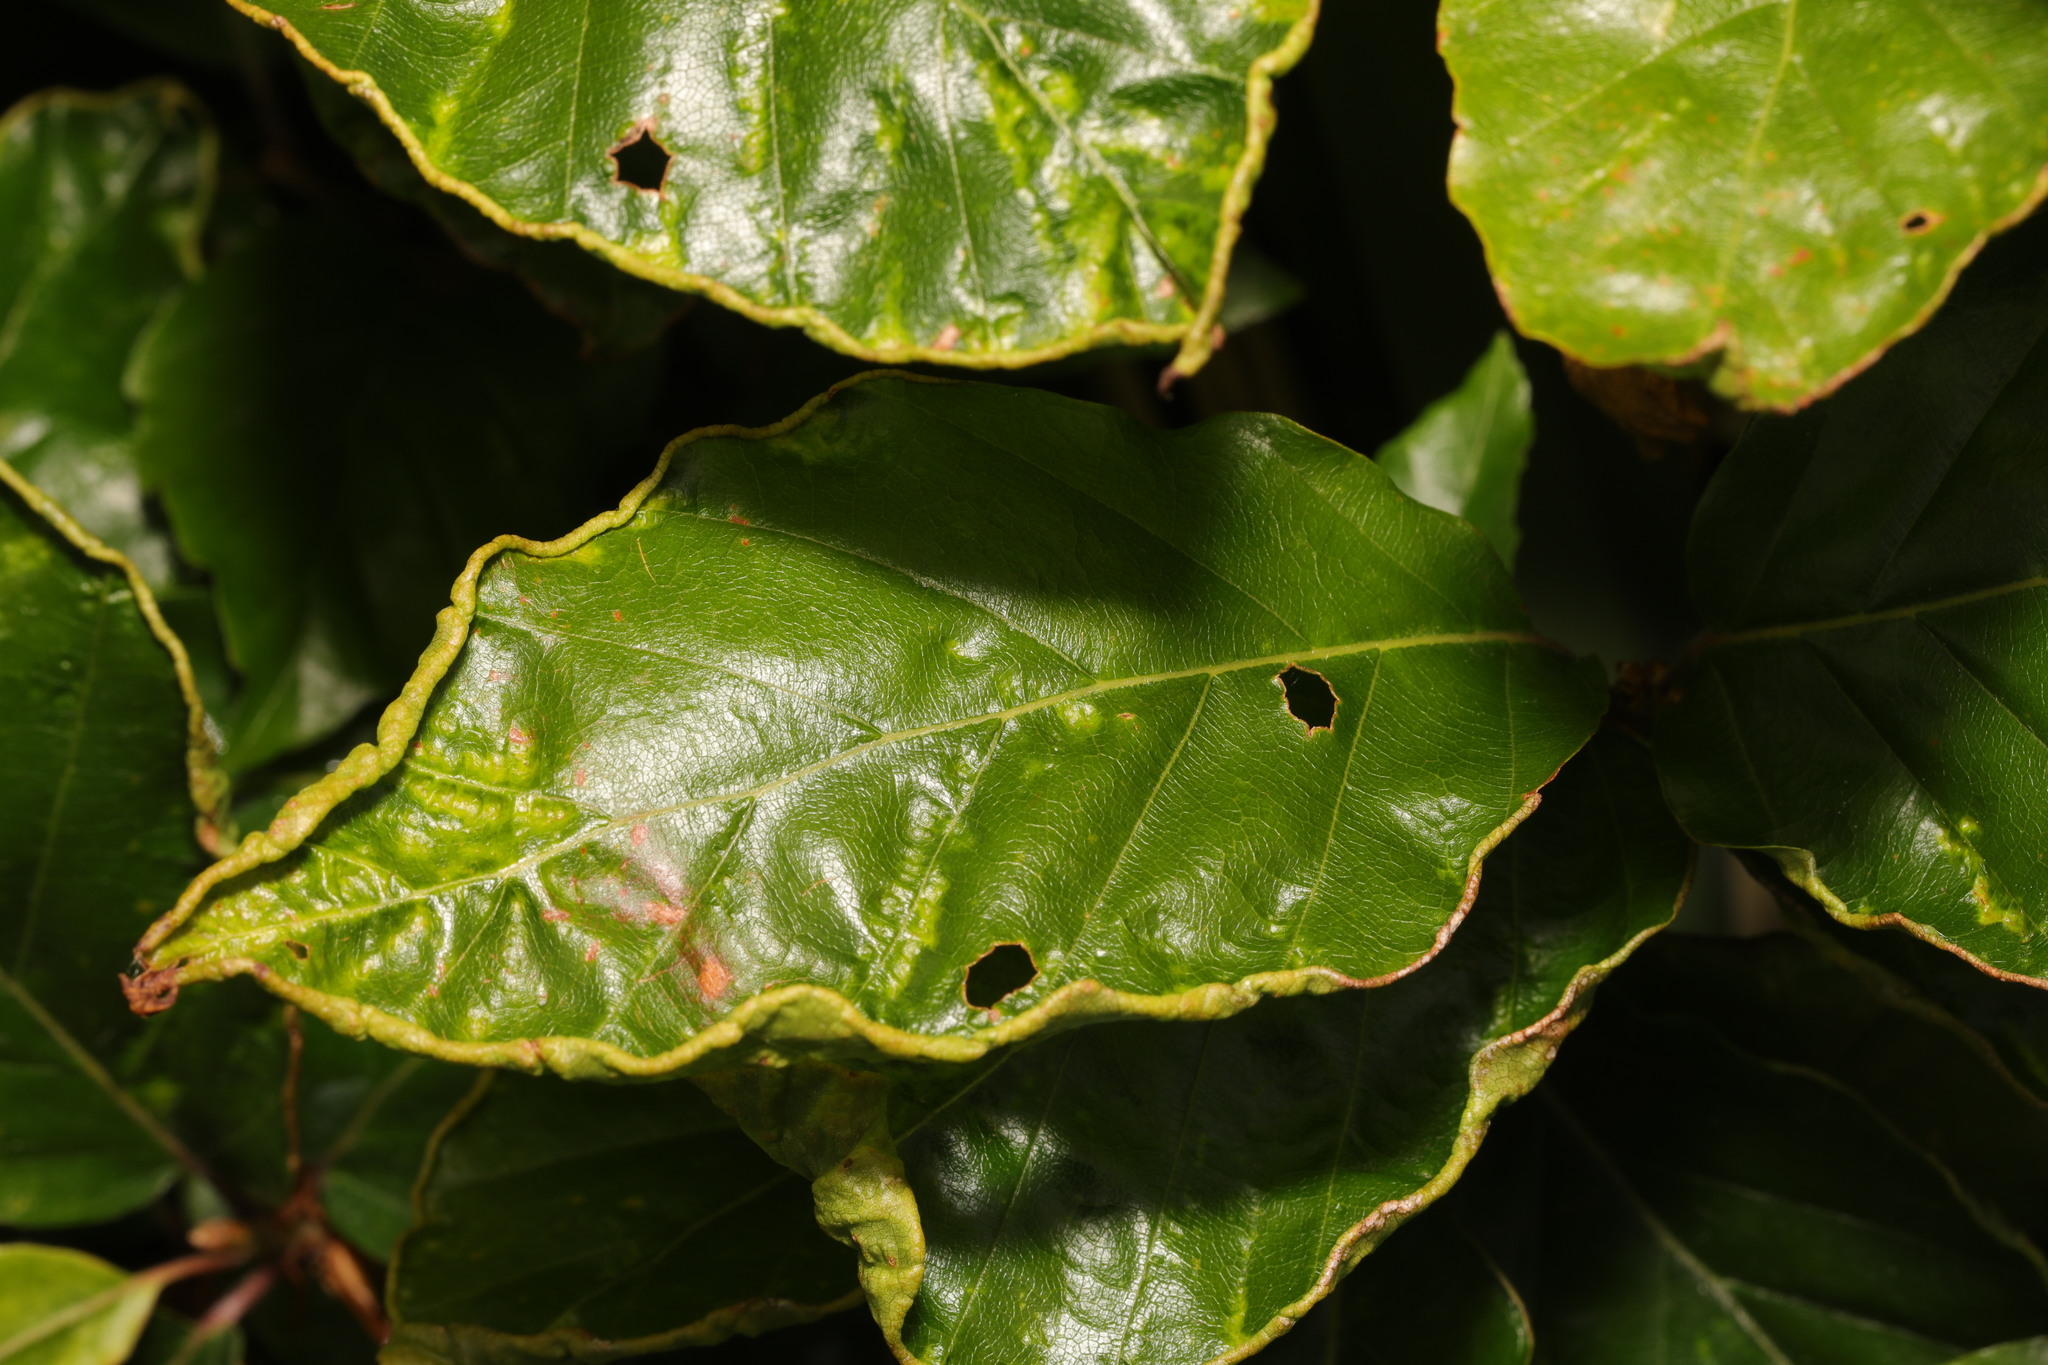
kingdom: Animalia
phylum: Arthropoda
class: Arachnida
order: Trombidiformes
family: Eriophyidae
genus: Acalitus
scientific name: Acalitus stenaspis
